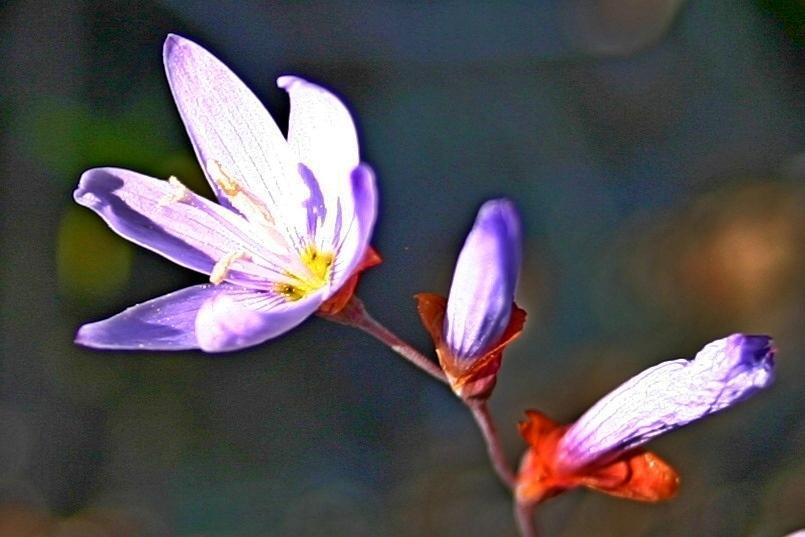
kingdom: Plantae
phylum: Tracheophyta
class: Liliopsida
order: Asparagales
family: Iridaceae
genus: Geissorhiza
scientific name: Geissorhiza heterostyla
